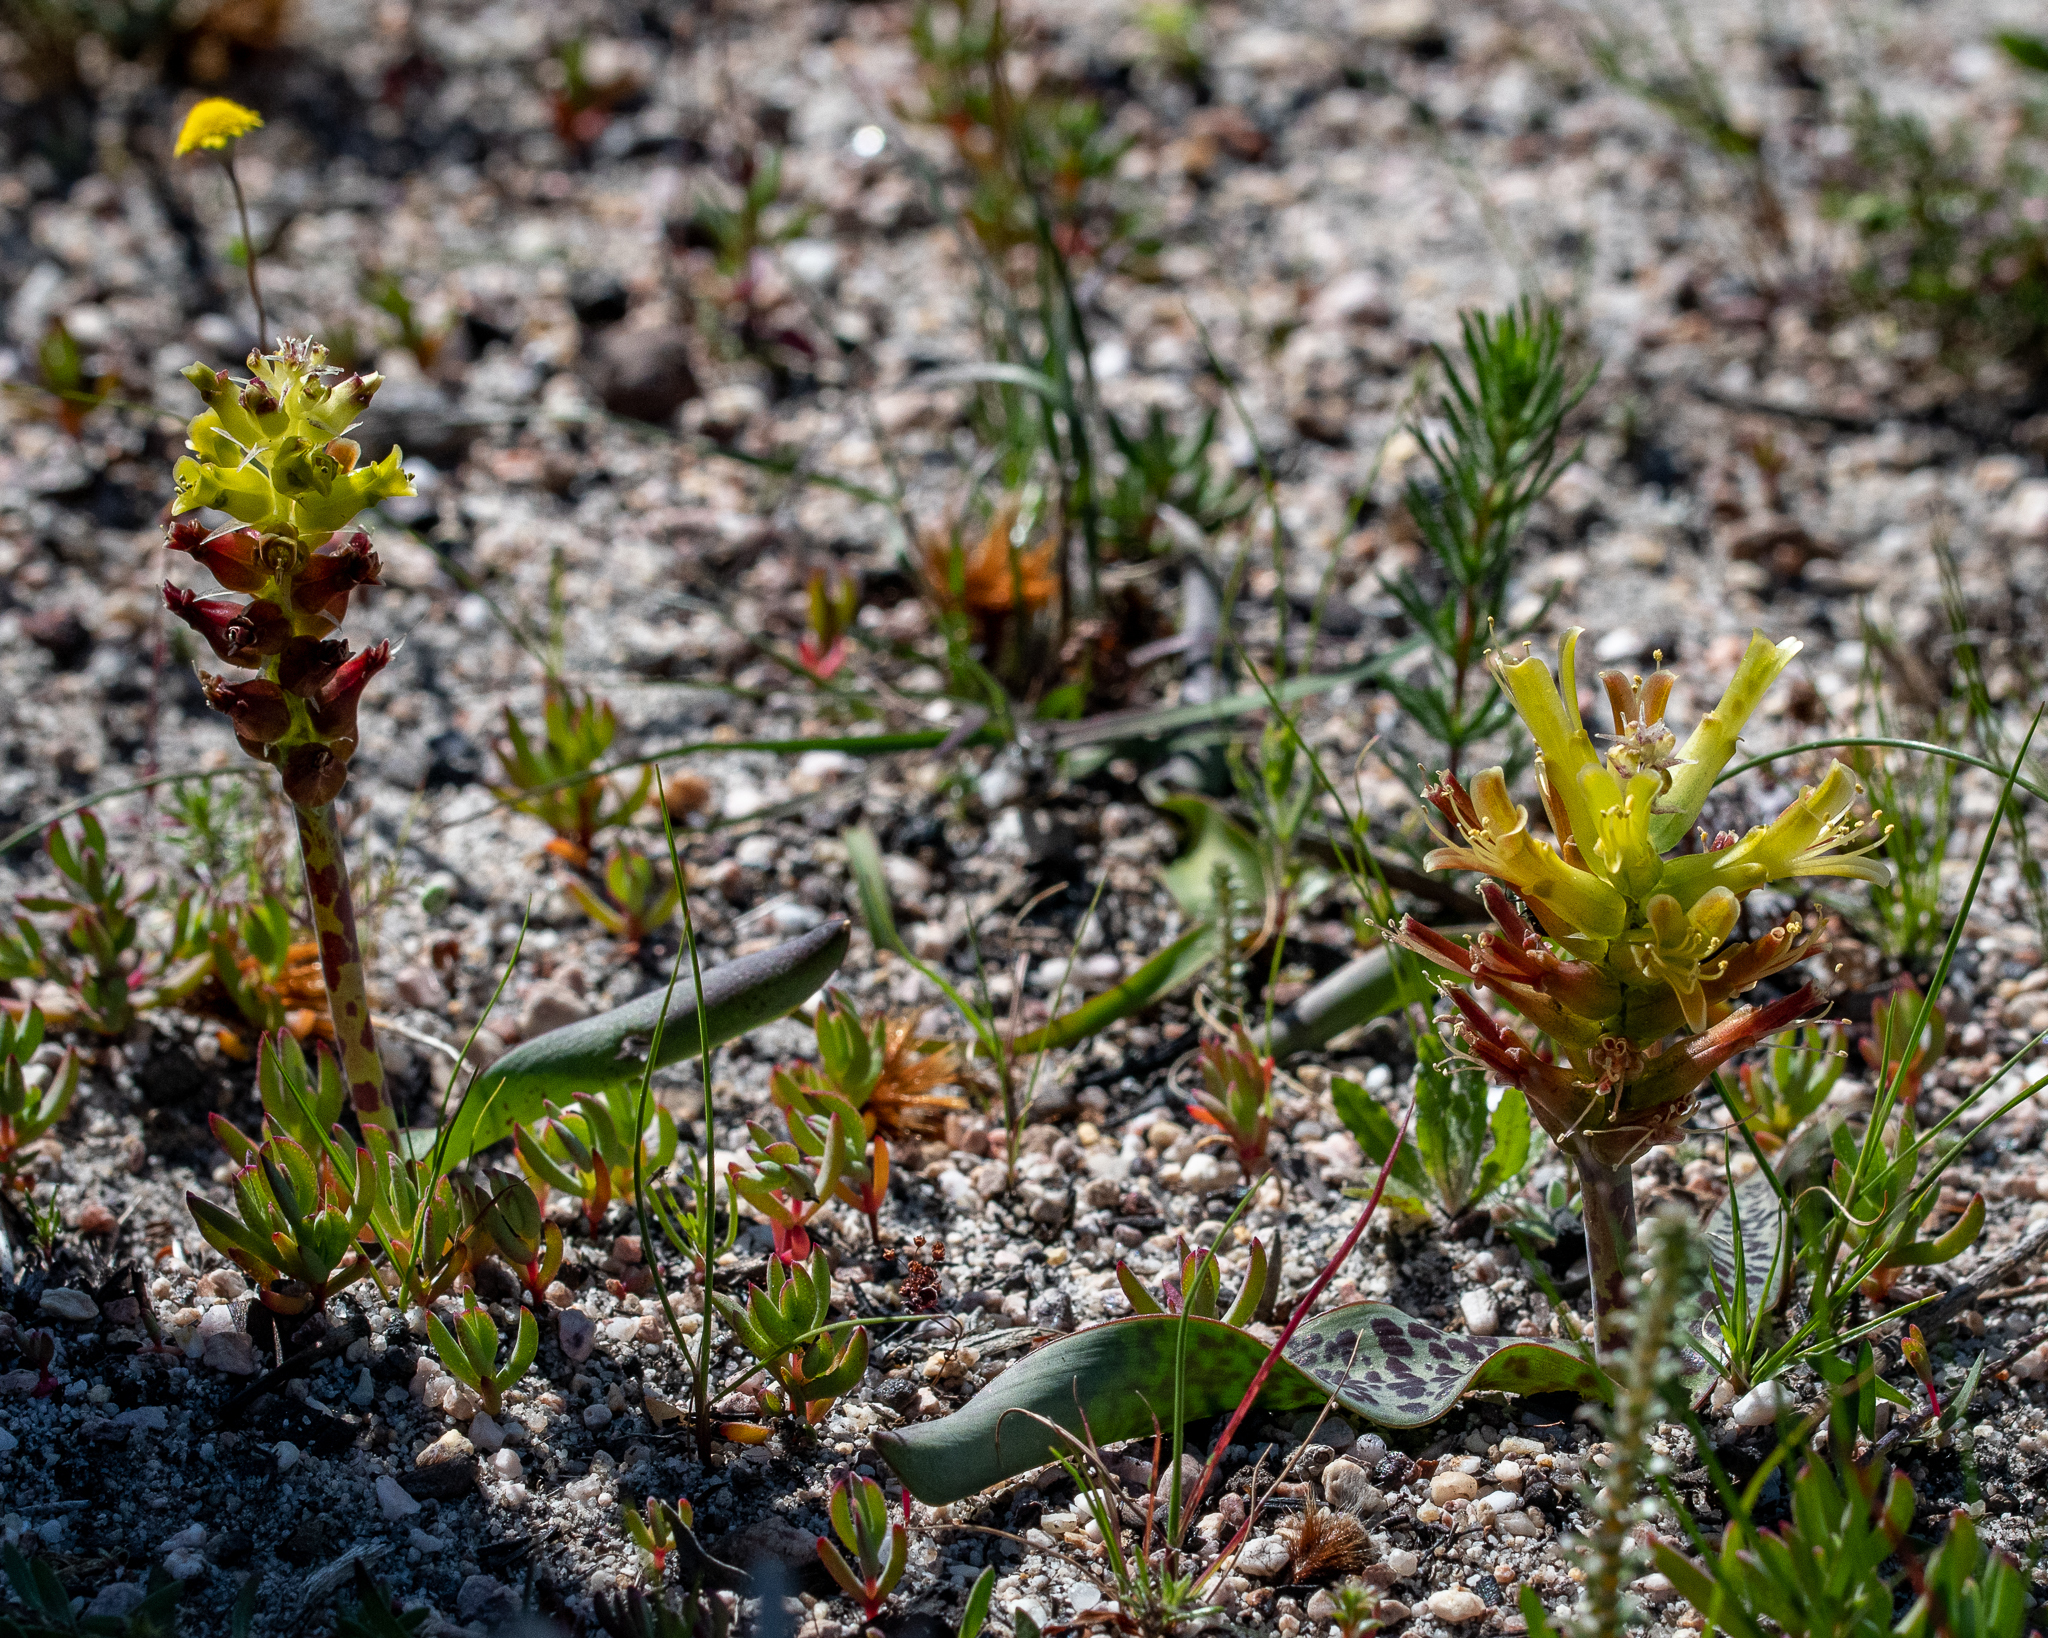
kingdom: Plantae
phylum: Tracheophyta
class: Liliopsida
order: Asparagales
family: Asparagaceae
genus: Lachenalia
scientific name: Lachenalia orchioides
